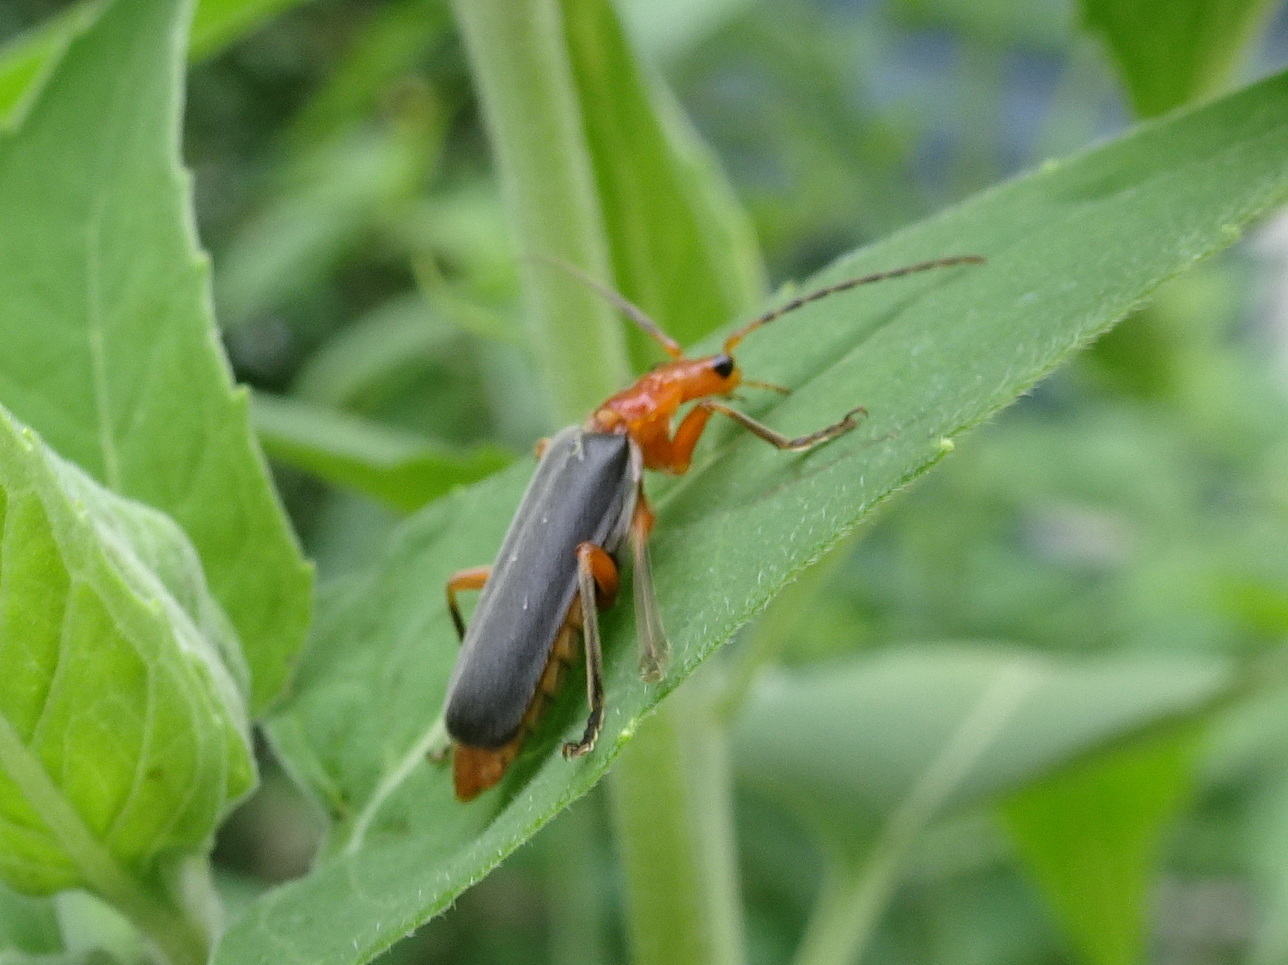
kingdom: Animalia
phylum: Arthropoda
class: Insecta
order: Coleoptera
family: Cantharidae
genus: Podabrus
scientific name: Podabrus tomentosus
